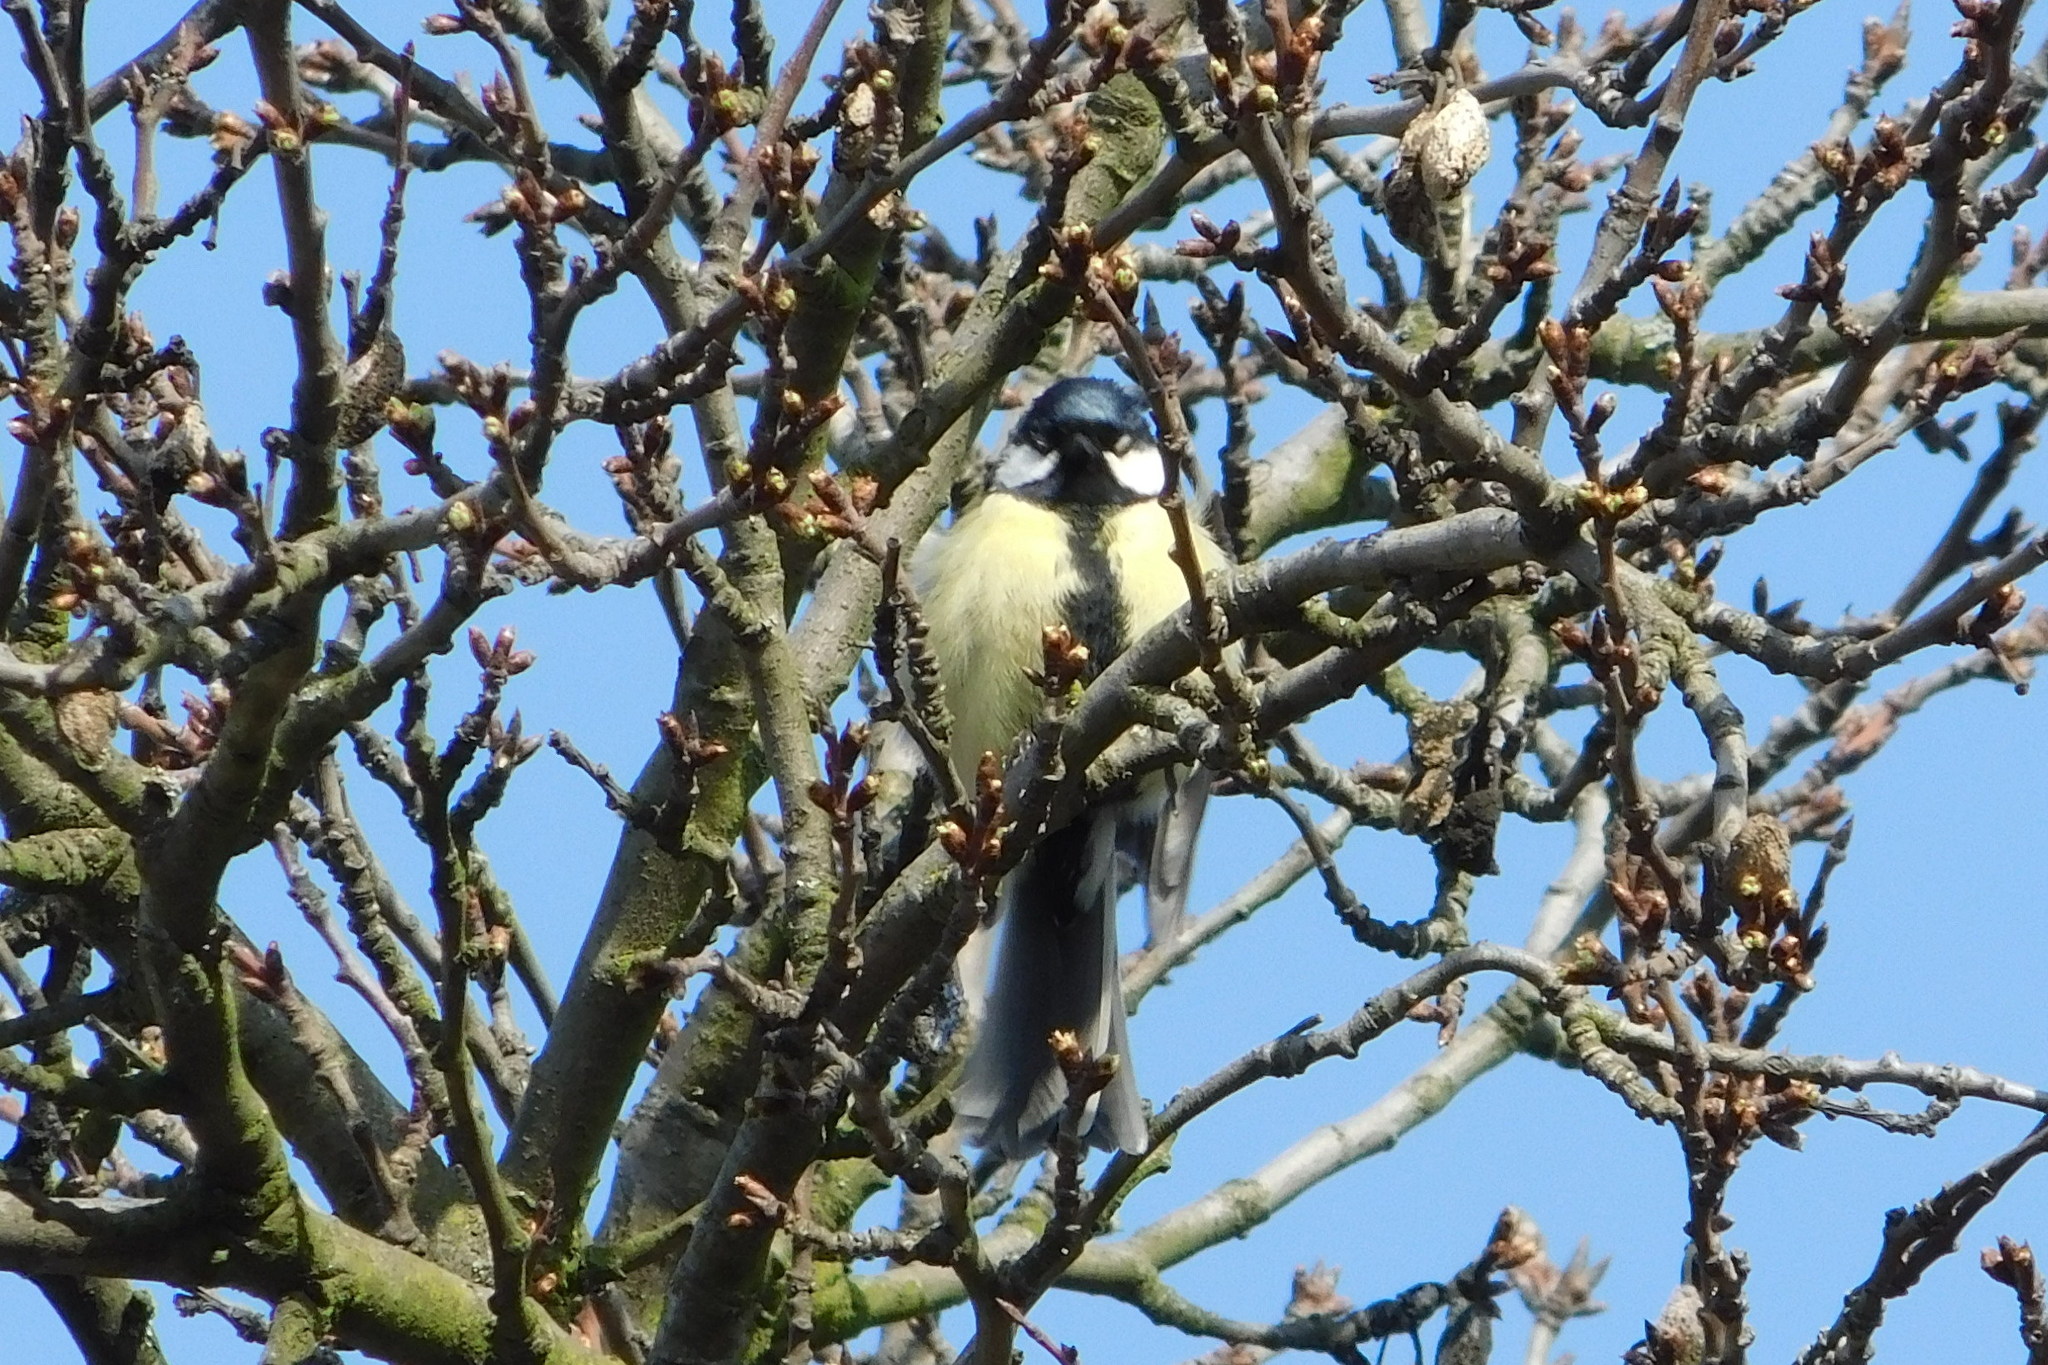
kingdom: Animalia
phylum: Chordata
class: Aves
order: Passeriformes
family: Paridae
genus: Parus
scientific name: Parus major
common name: Great tit
